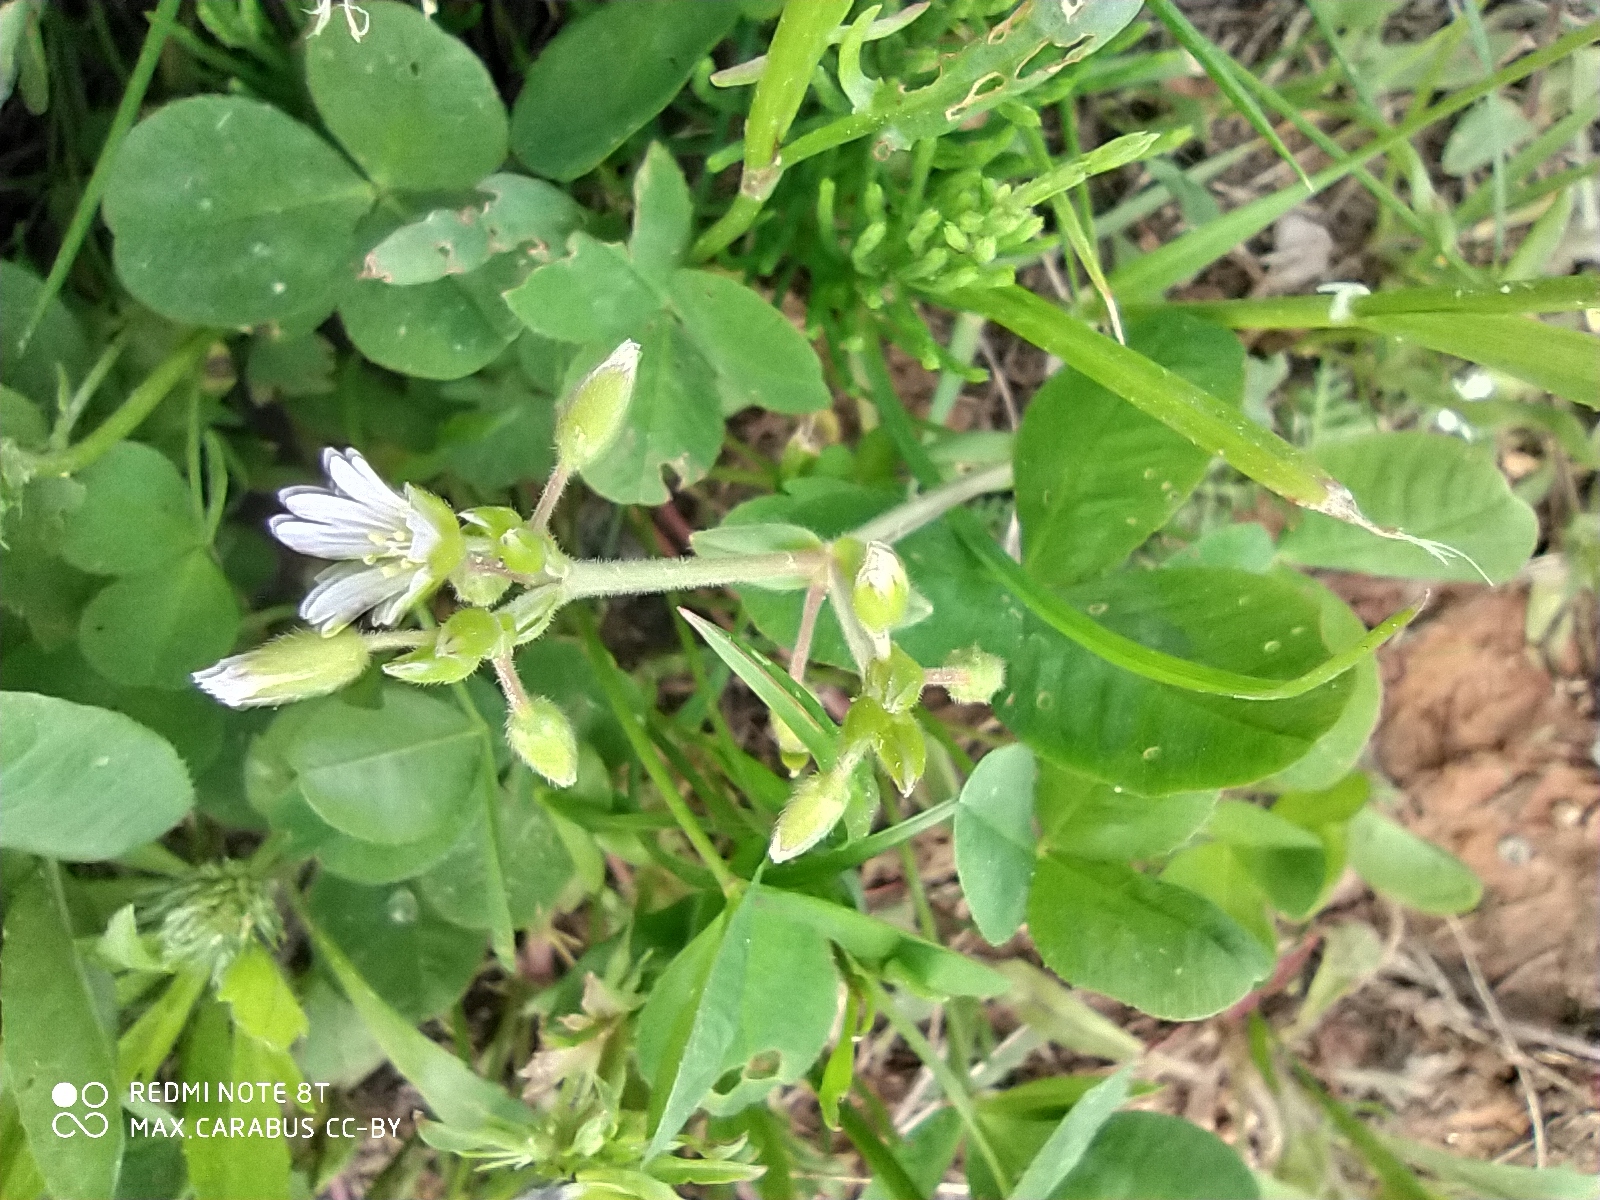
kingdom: Plantae
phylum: Tracheophyta
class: Magnoliopsida
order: Caryophyllales
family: Caryophyllaceae
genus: Cerastium
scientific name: Cerastium holosteoides
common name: Big chickweed
